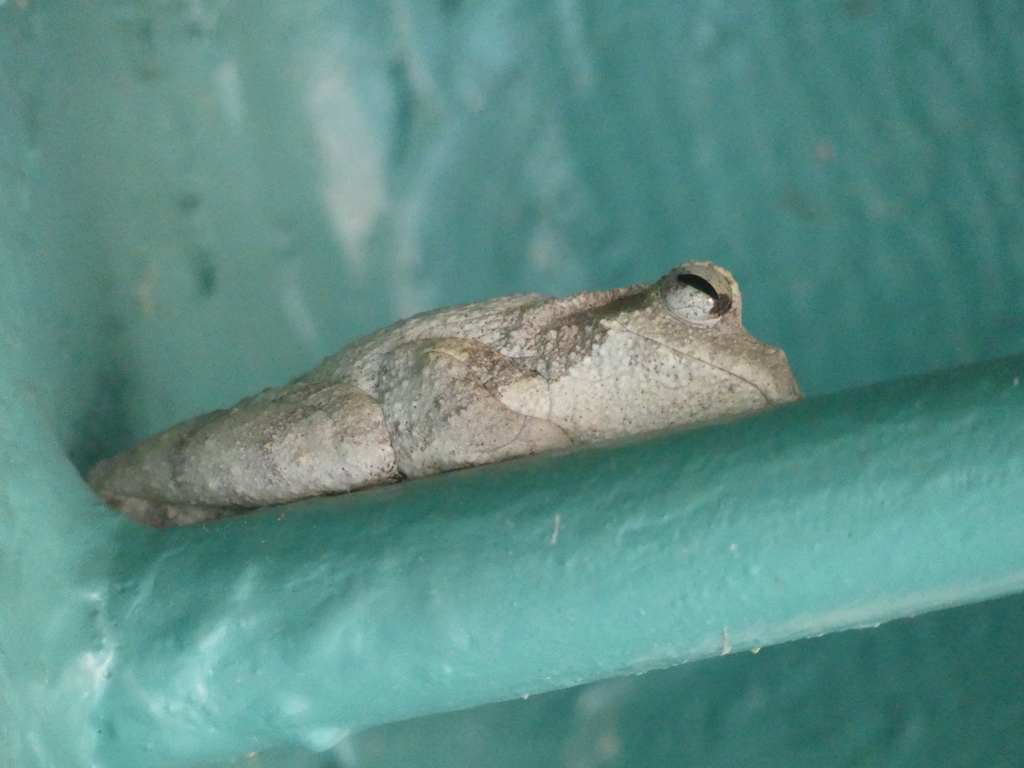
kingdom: Animalia
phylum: Chordata
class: Amphibia
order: Anura
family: Rhacophoridae
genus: Chiromantis
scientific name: Chiromantis xerampelina
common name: African gray treefrog
